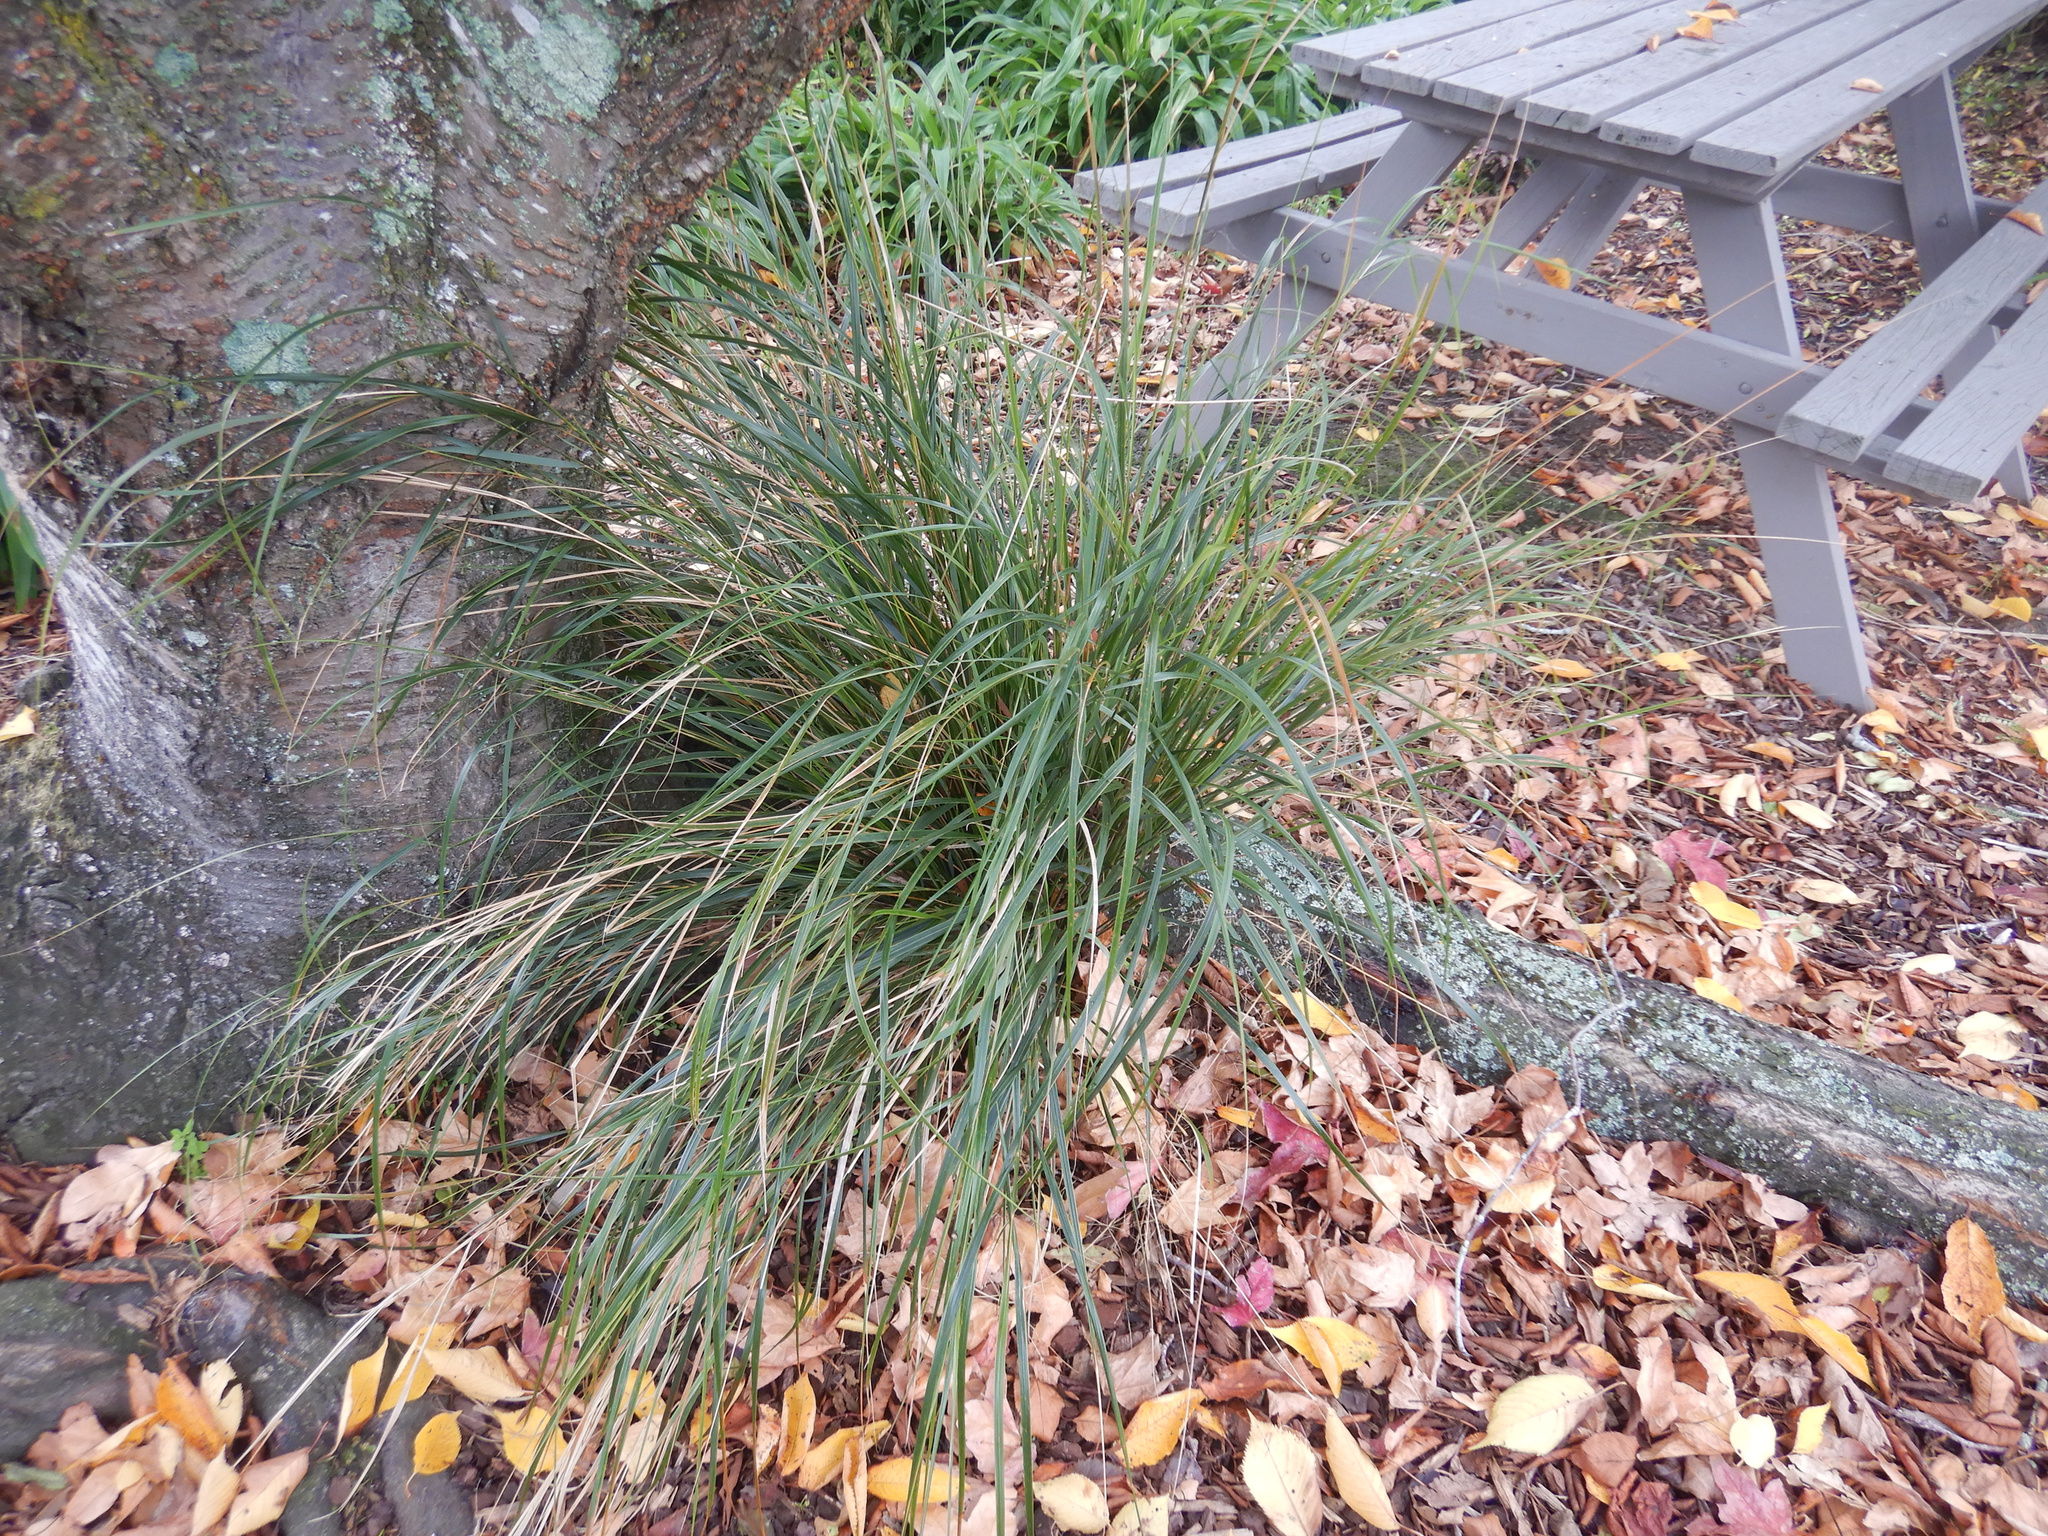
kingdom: Plantae
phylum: Tracheophyta
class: Liliopsida
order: Poales
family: Poaceae
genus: Anemanthele
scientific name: Anemanthele lessoniana
